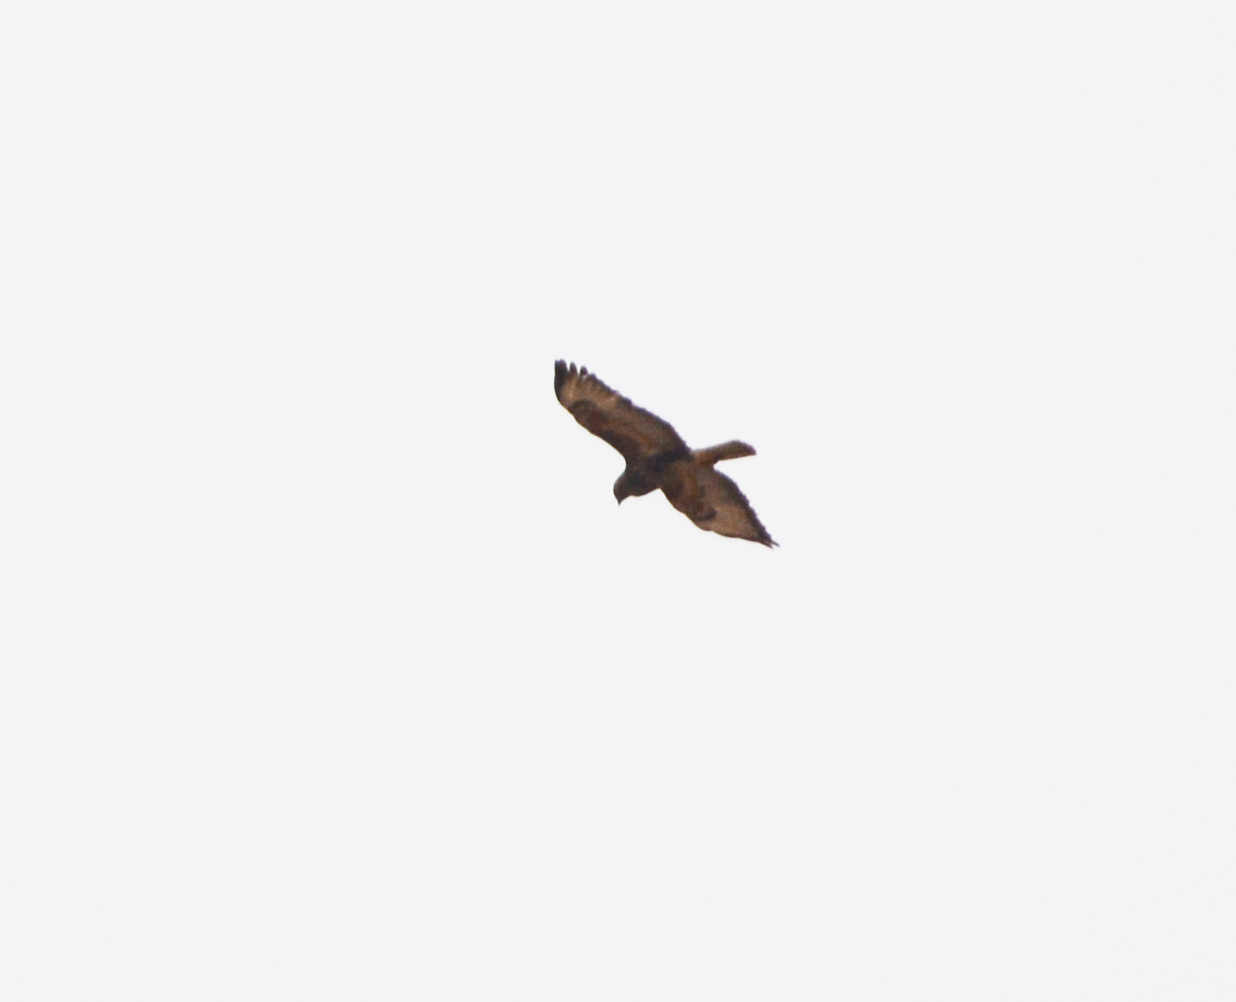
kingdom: Animalia
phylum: Chordata
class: Aves
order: Accipitriformes
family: Accipitridae
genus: Buteo
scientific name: Buteo buteo
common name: Common buzzard
